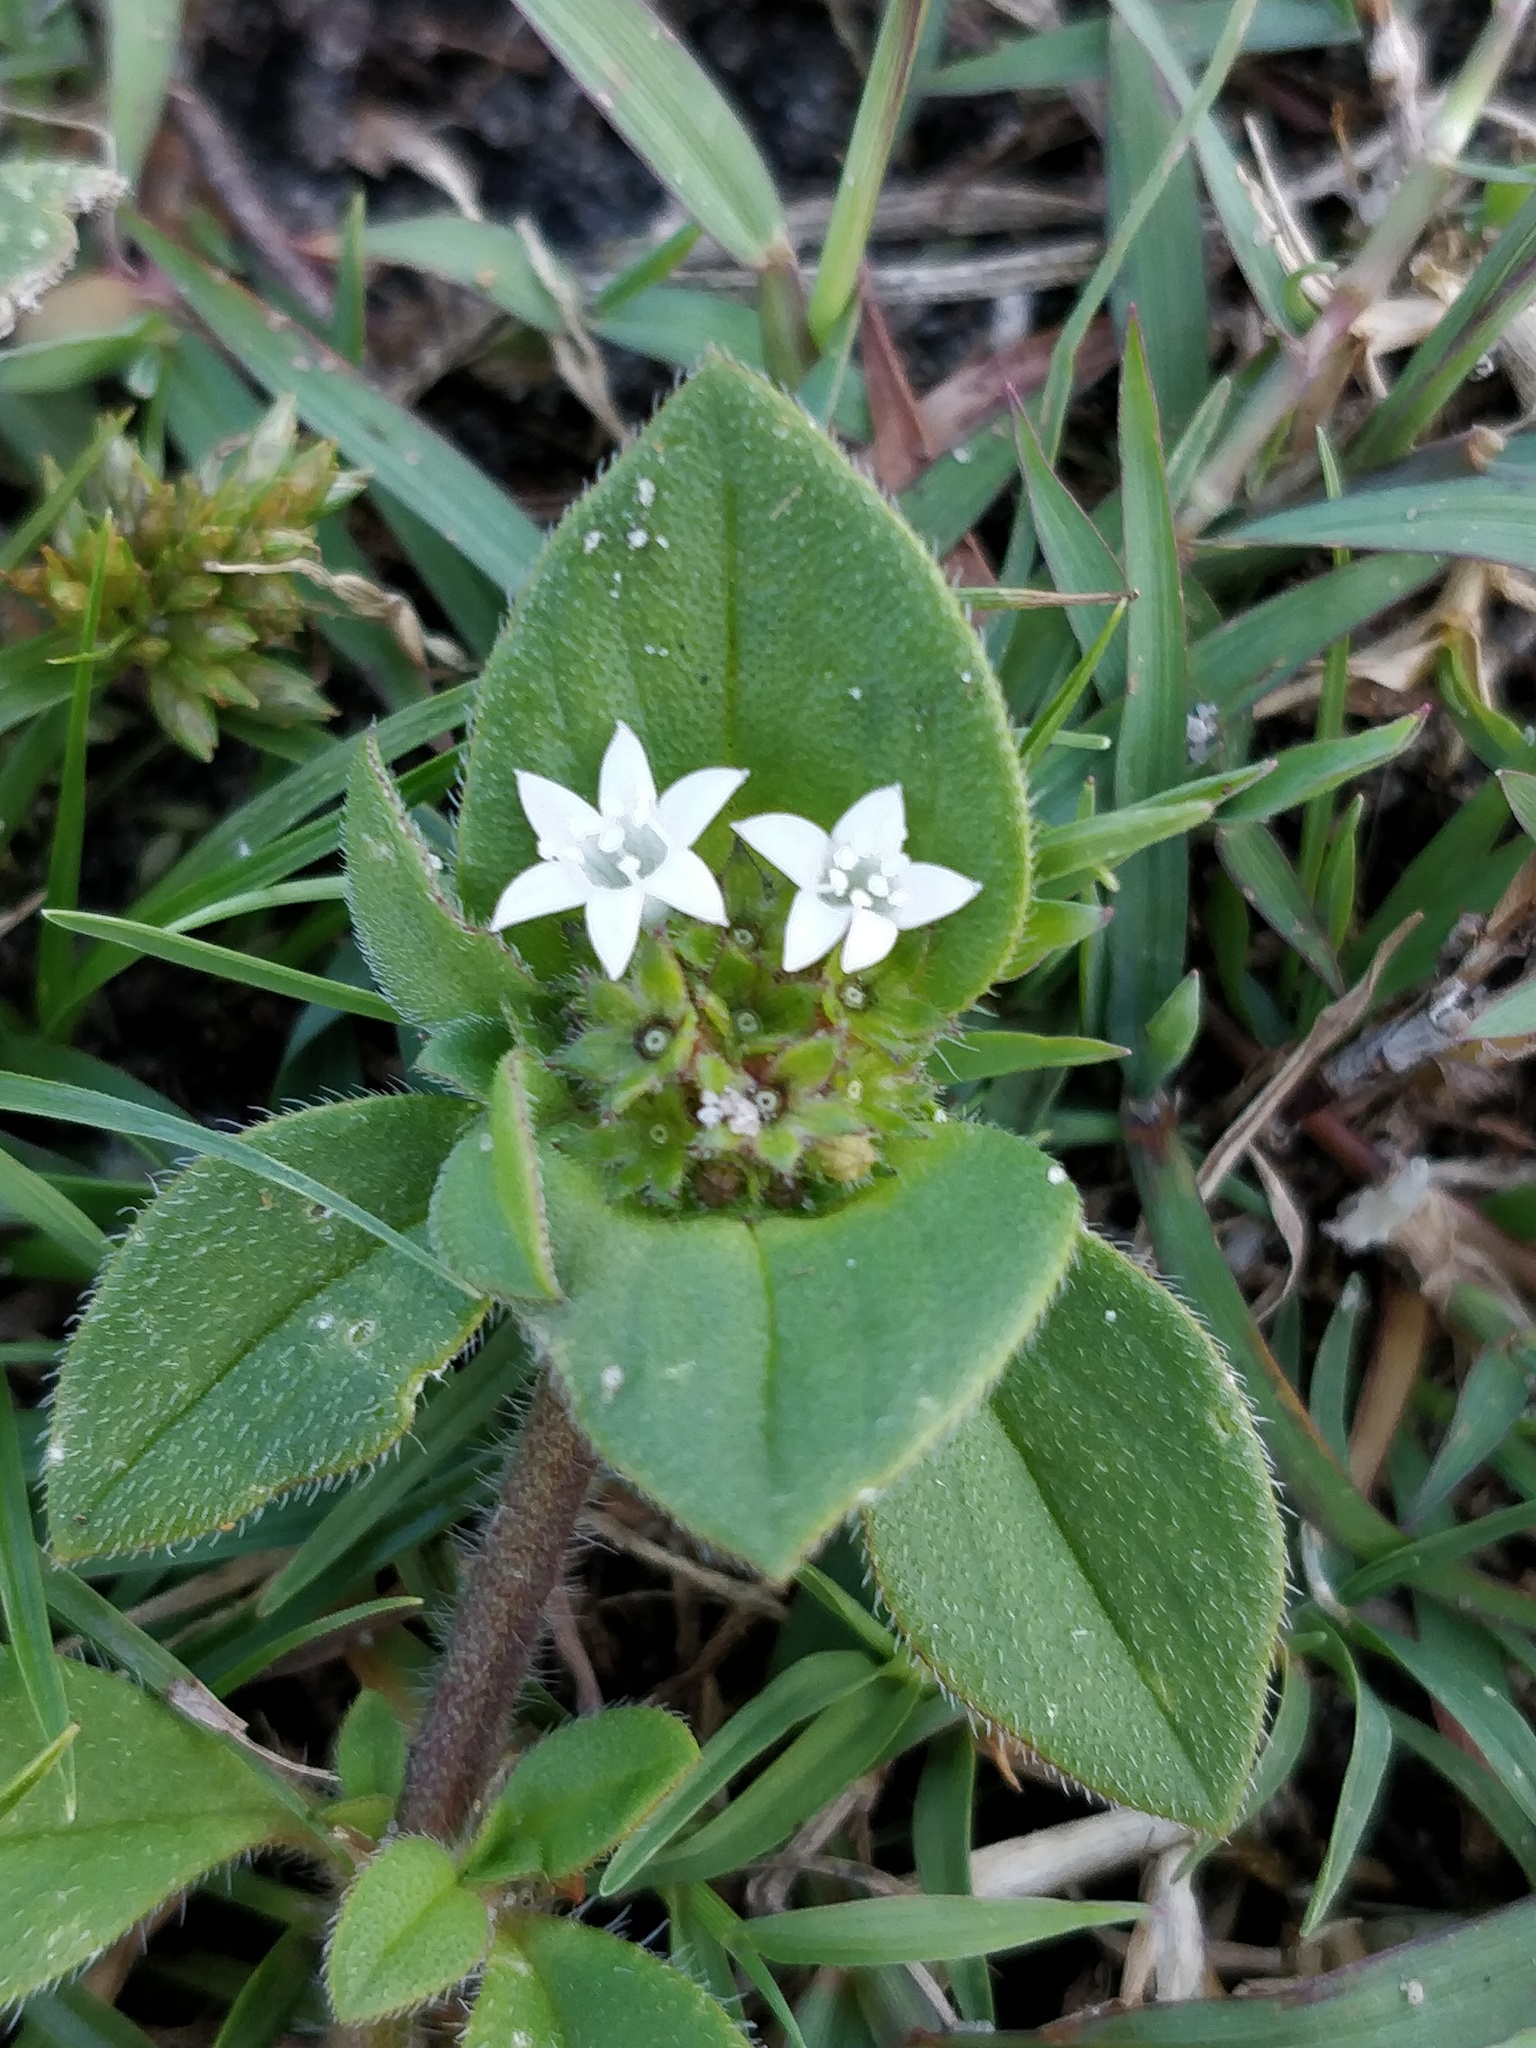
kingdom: Plantae
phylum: Tracheophyta
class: Magnoliopsida
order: Gentianales
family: Rubiaceae
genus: Richardia
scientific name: Richardia brasiliensis
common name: Tropical mexican clover
